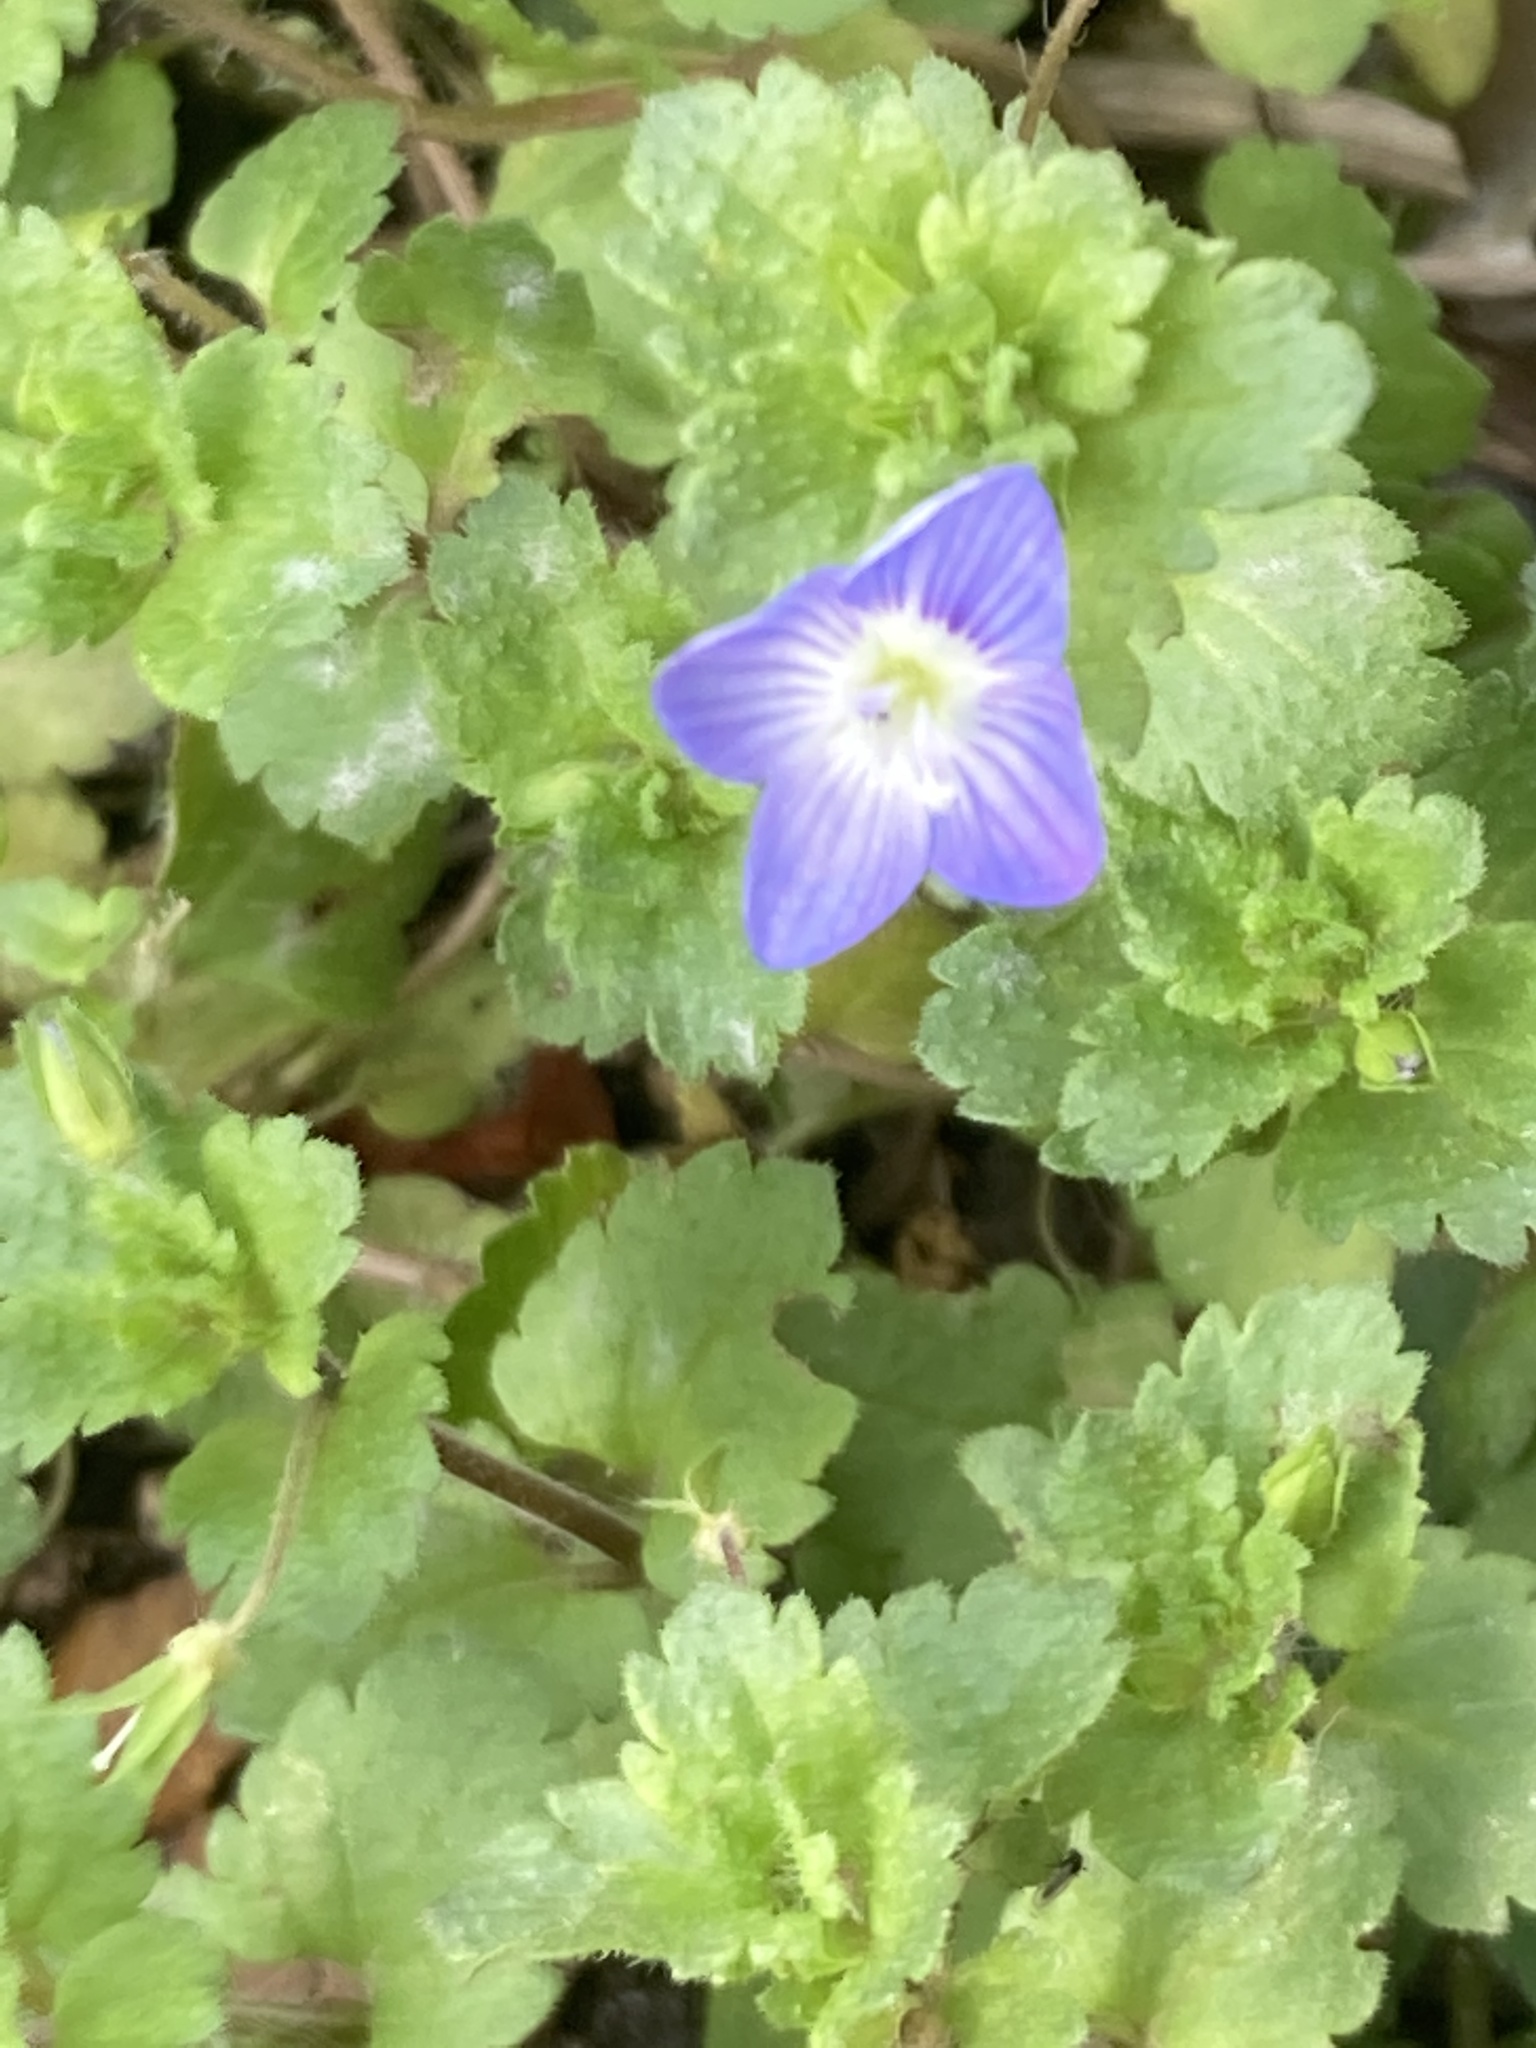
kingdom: Plantae
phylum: Tracheophyta
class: Magnoliopsida
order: Lamiales
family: Plantaginaceae
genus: Veronica
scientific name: Veronica persica
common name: Common field-speedwell
